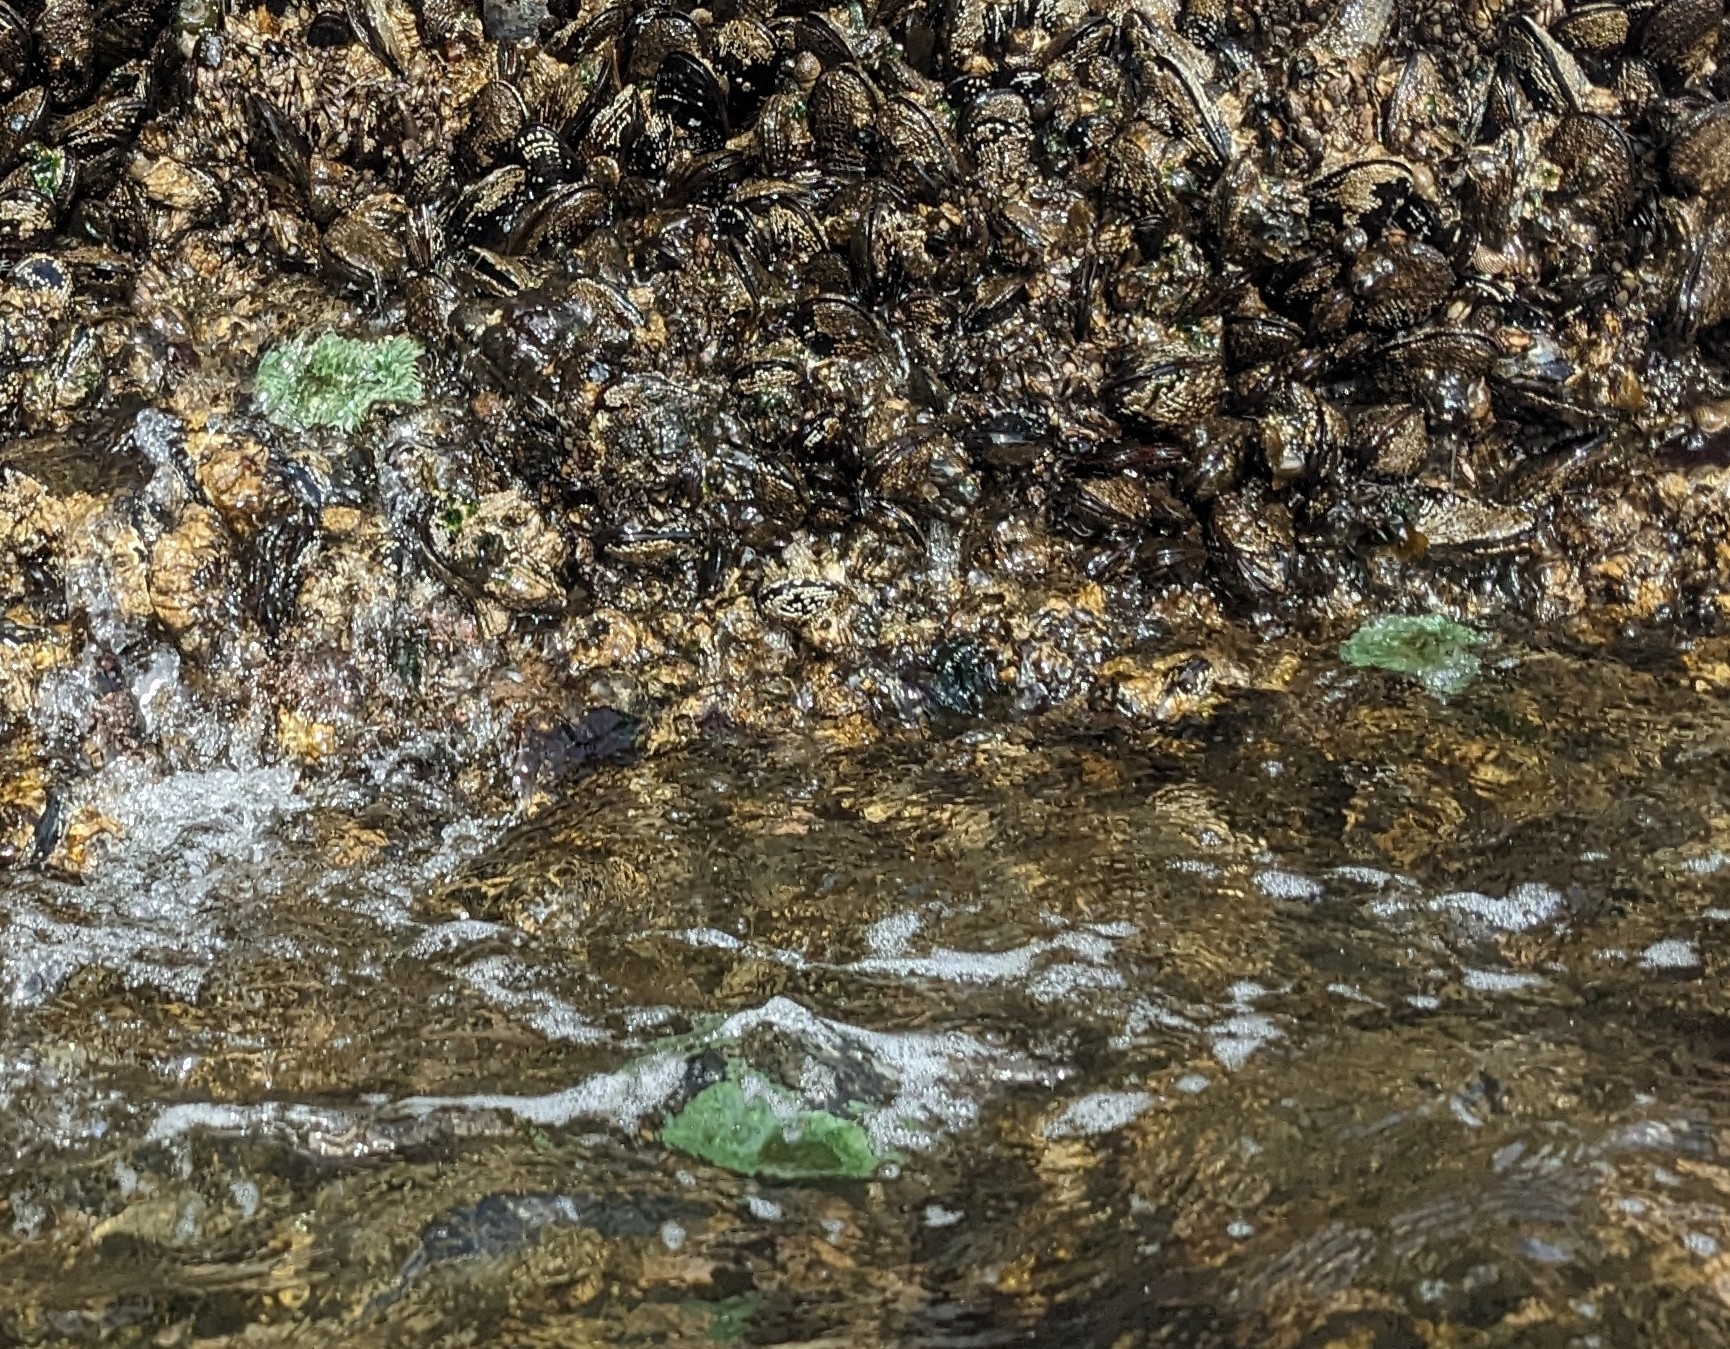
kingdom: Animalia
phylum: Cnidaria
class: Anthozoa
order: Actiniaria
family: Actiniidae
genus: Anthopleura
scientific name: Anthopleura xanthogrammica
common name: Giant green anemone
